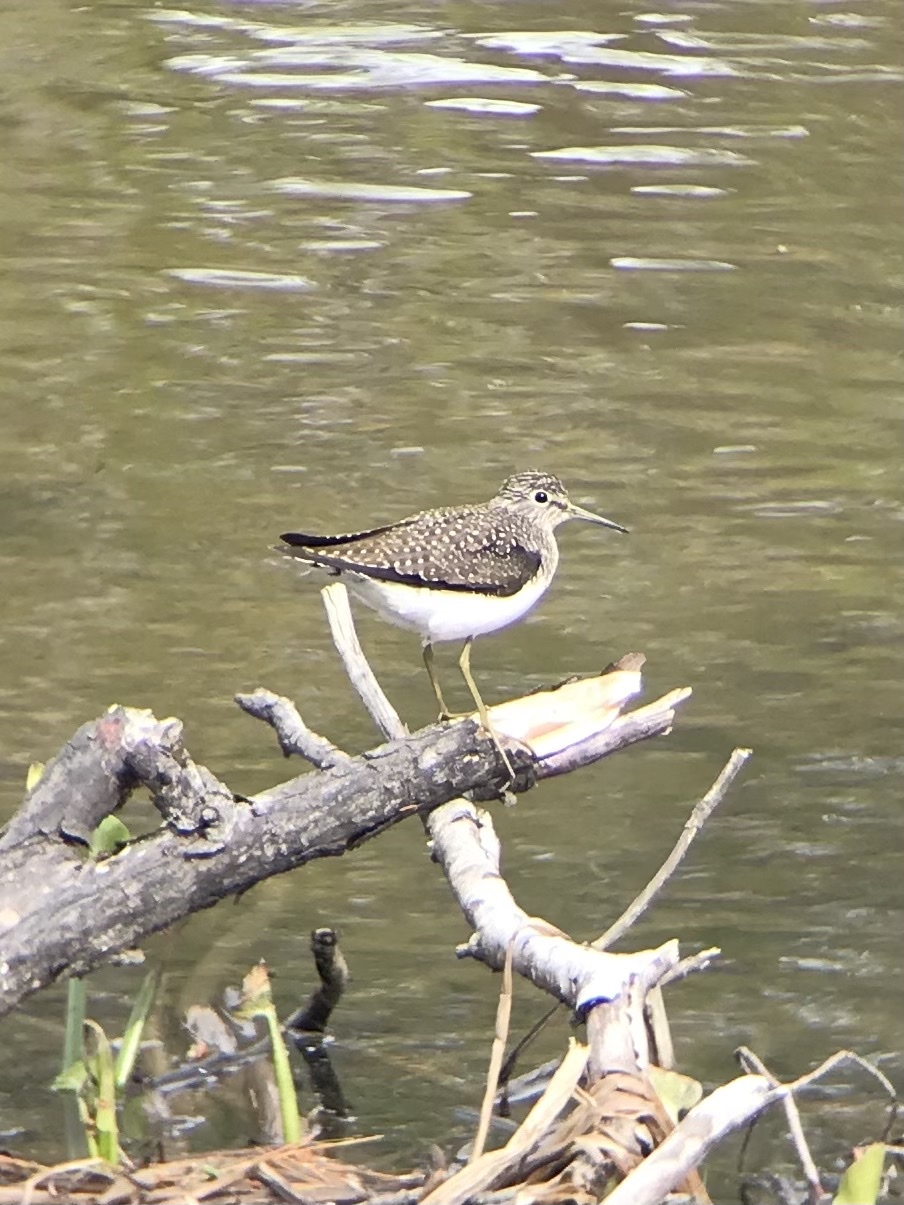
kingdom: Animalia
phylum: Chordata
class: Aves
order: Charadriiformes
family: Scolopacidae
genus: Tringa
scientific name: Tringa solitaria
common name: Solitary sandpiper
